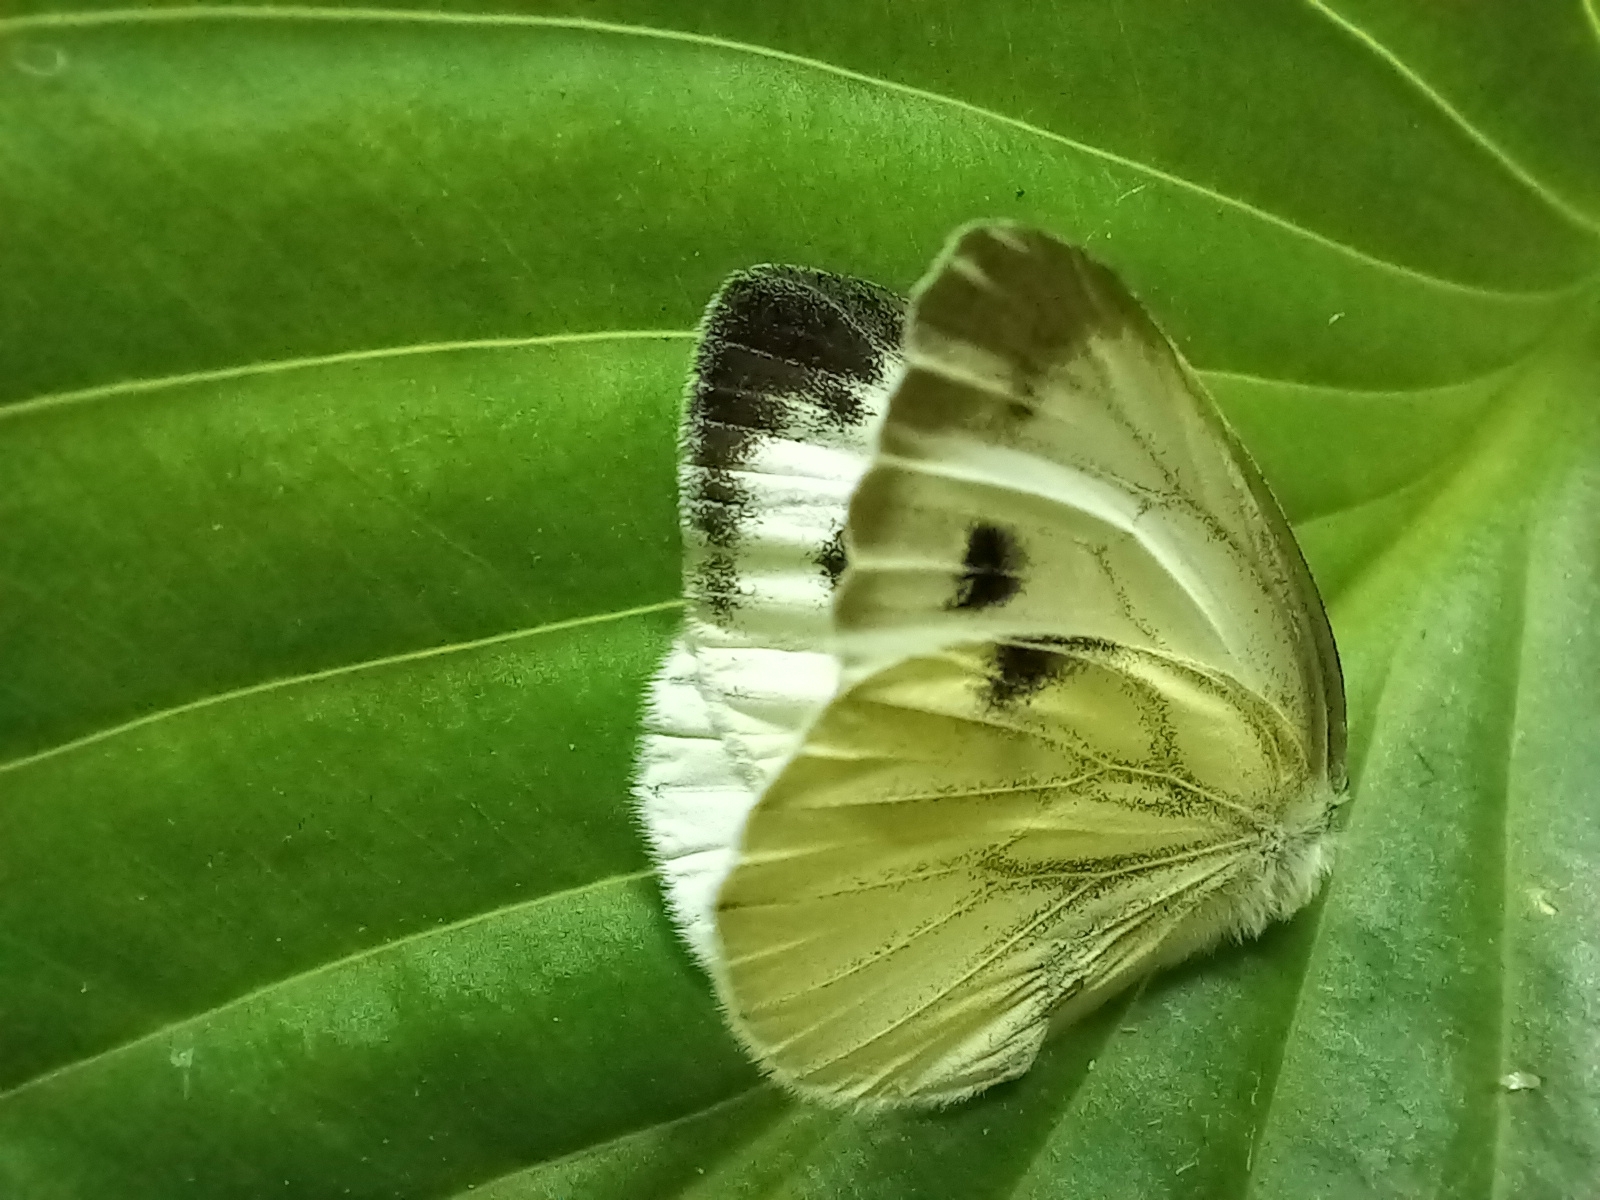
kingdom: Animalia
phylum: Arthropoda
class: Insecta
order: Lepidoptera
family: Pieridae
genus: Pieris
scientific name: Pieris napi
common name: Green-veined white
